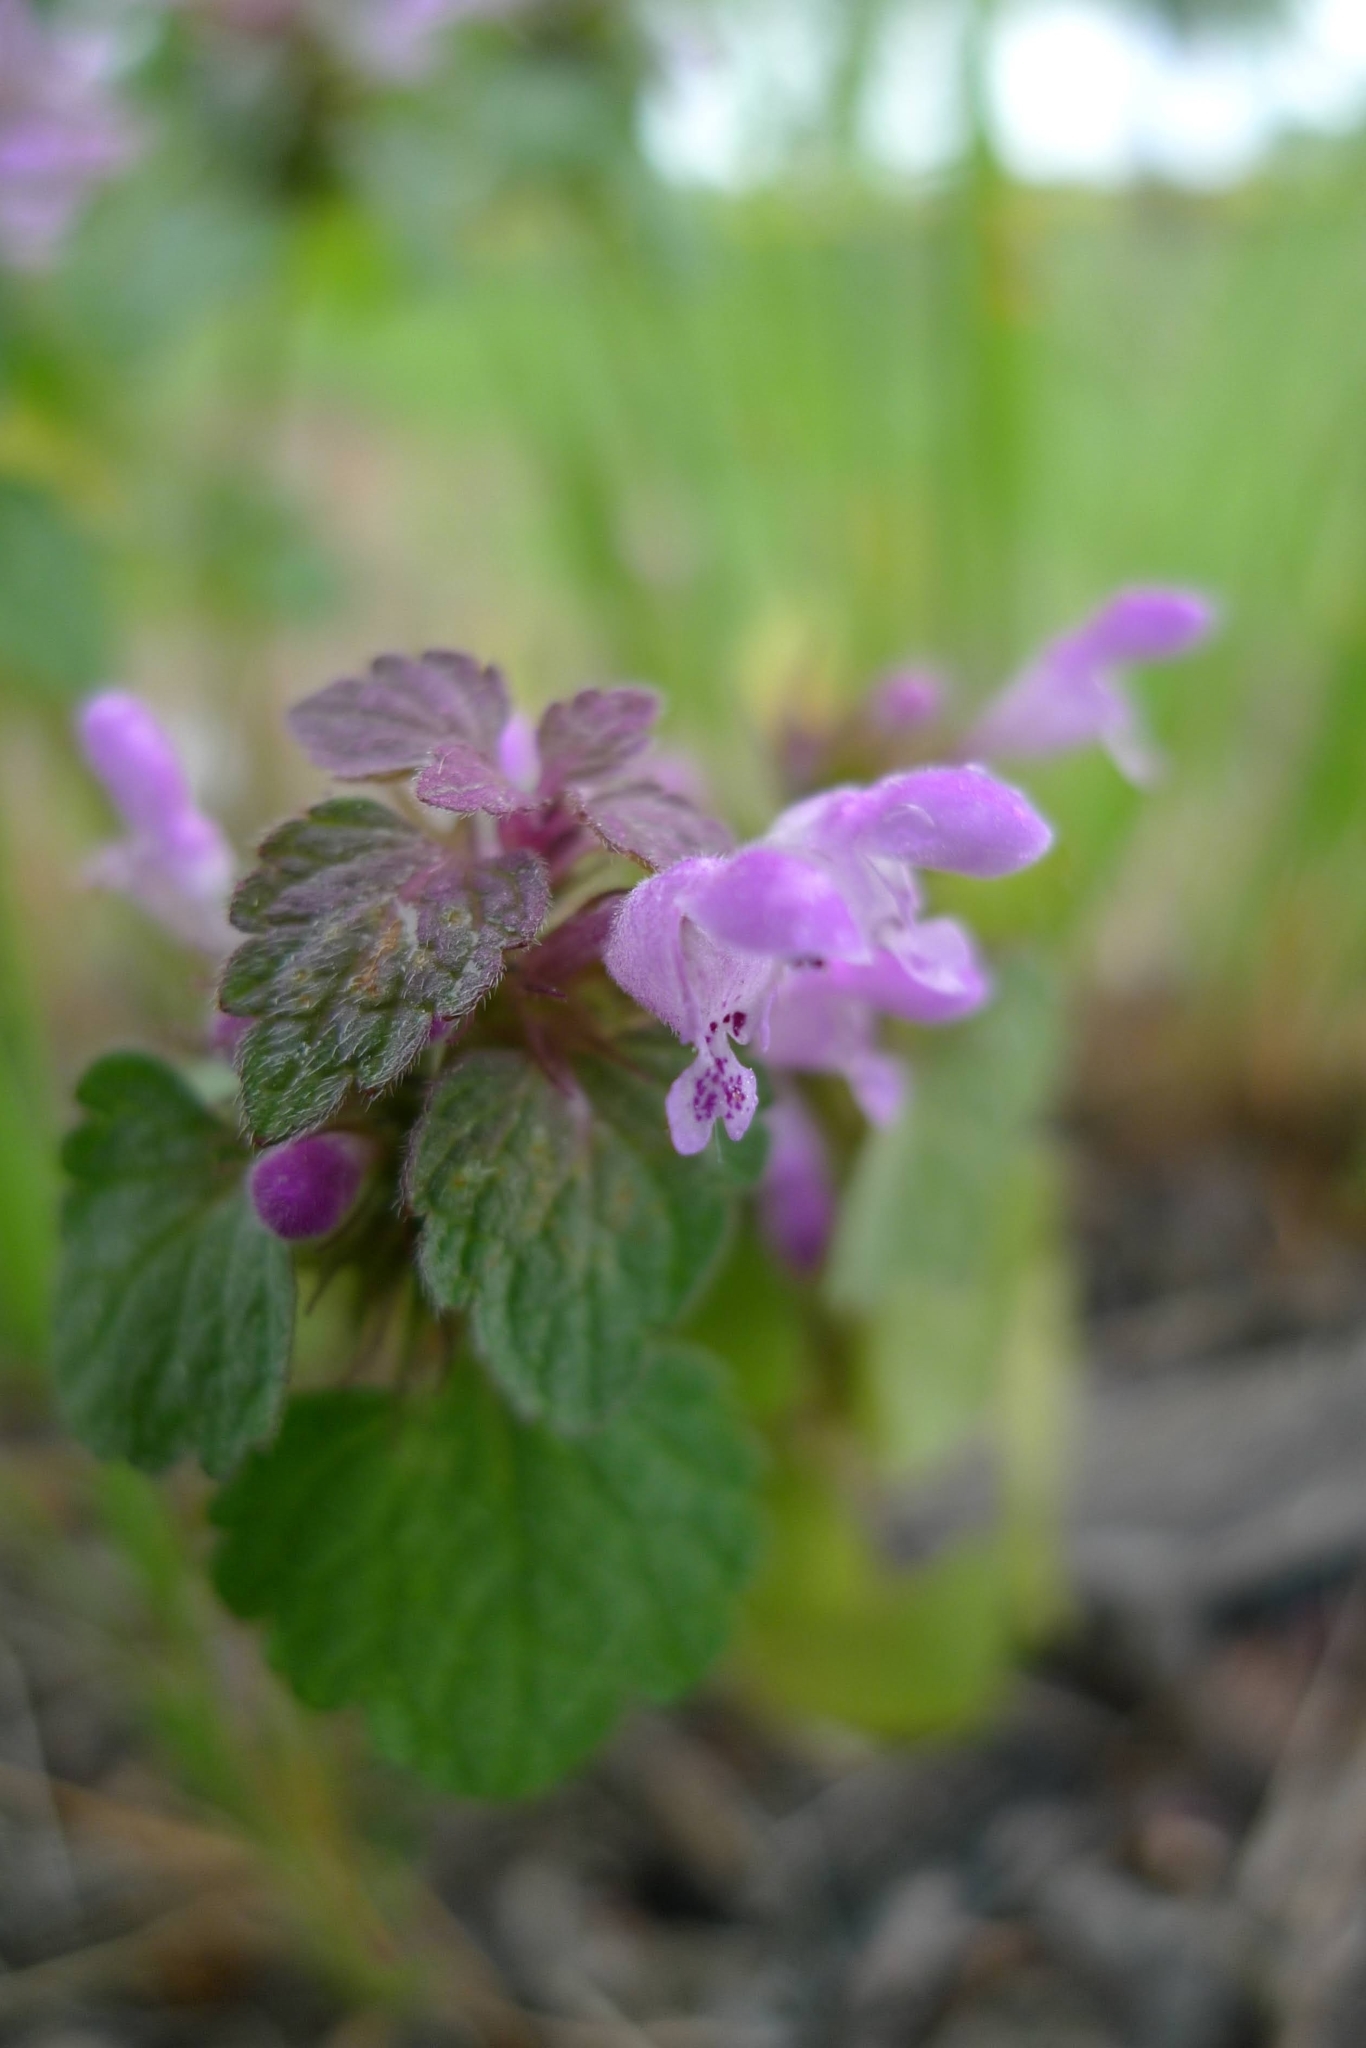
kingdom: Plantae
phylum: Tracheophyta
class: Magnoliopsida
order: Lamiales
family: Lamiaceae
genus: Lamium
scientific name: Lamium purpureum
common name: Red dead-nettle
